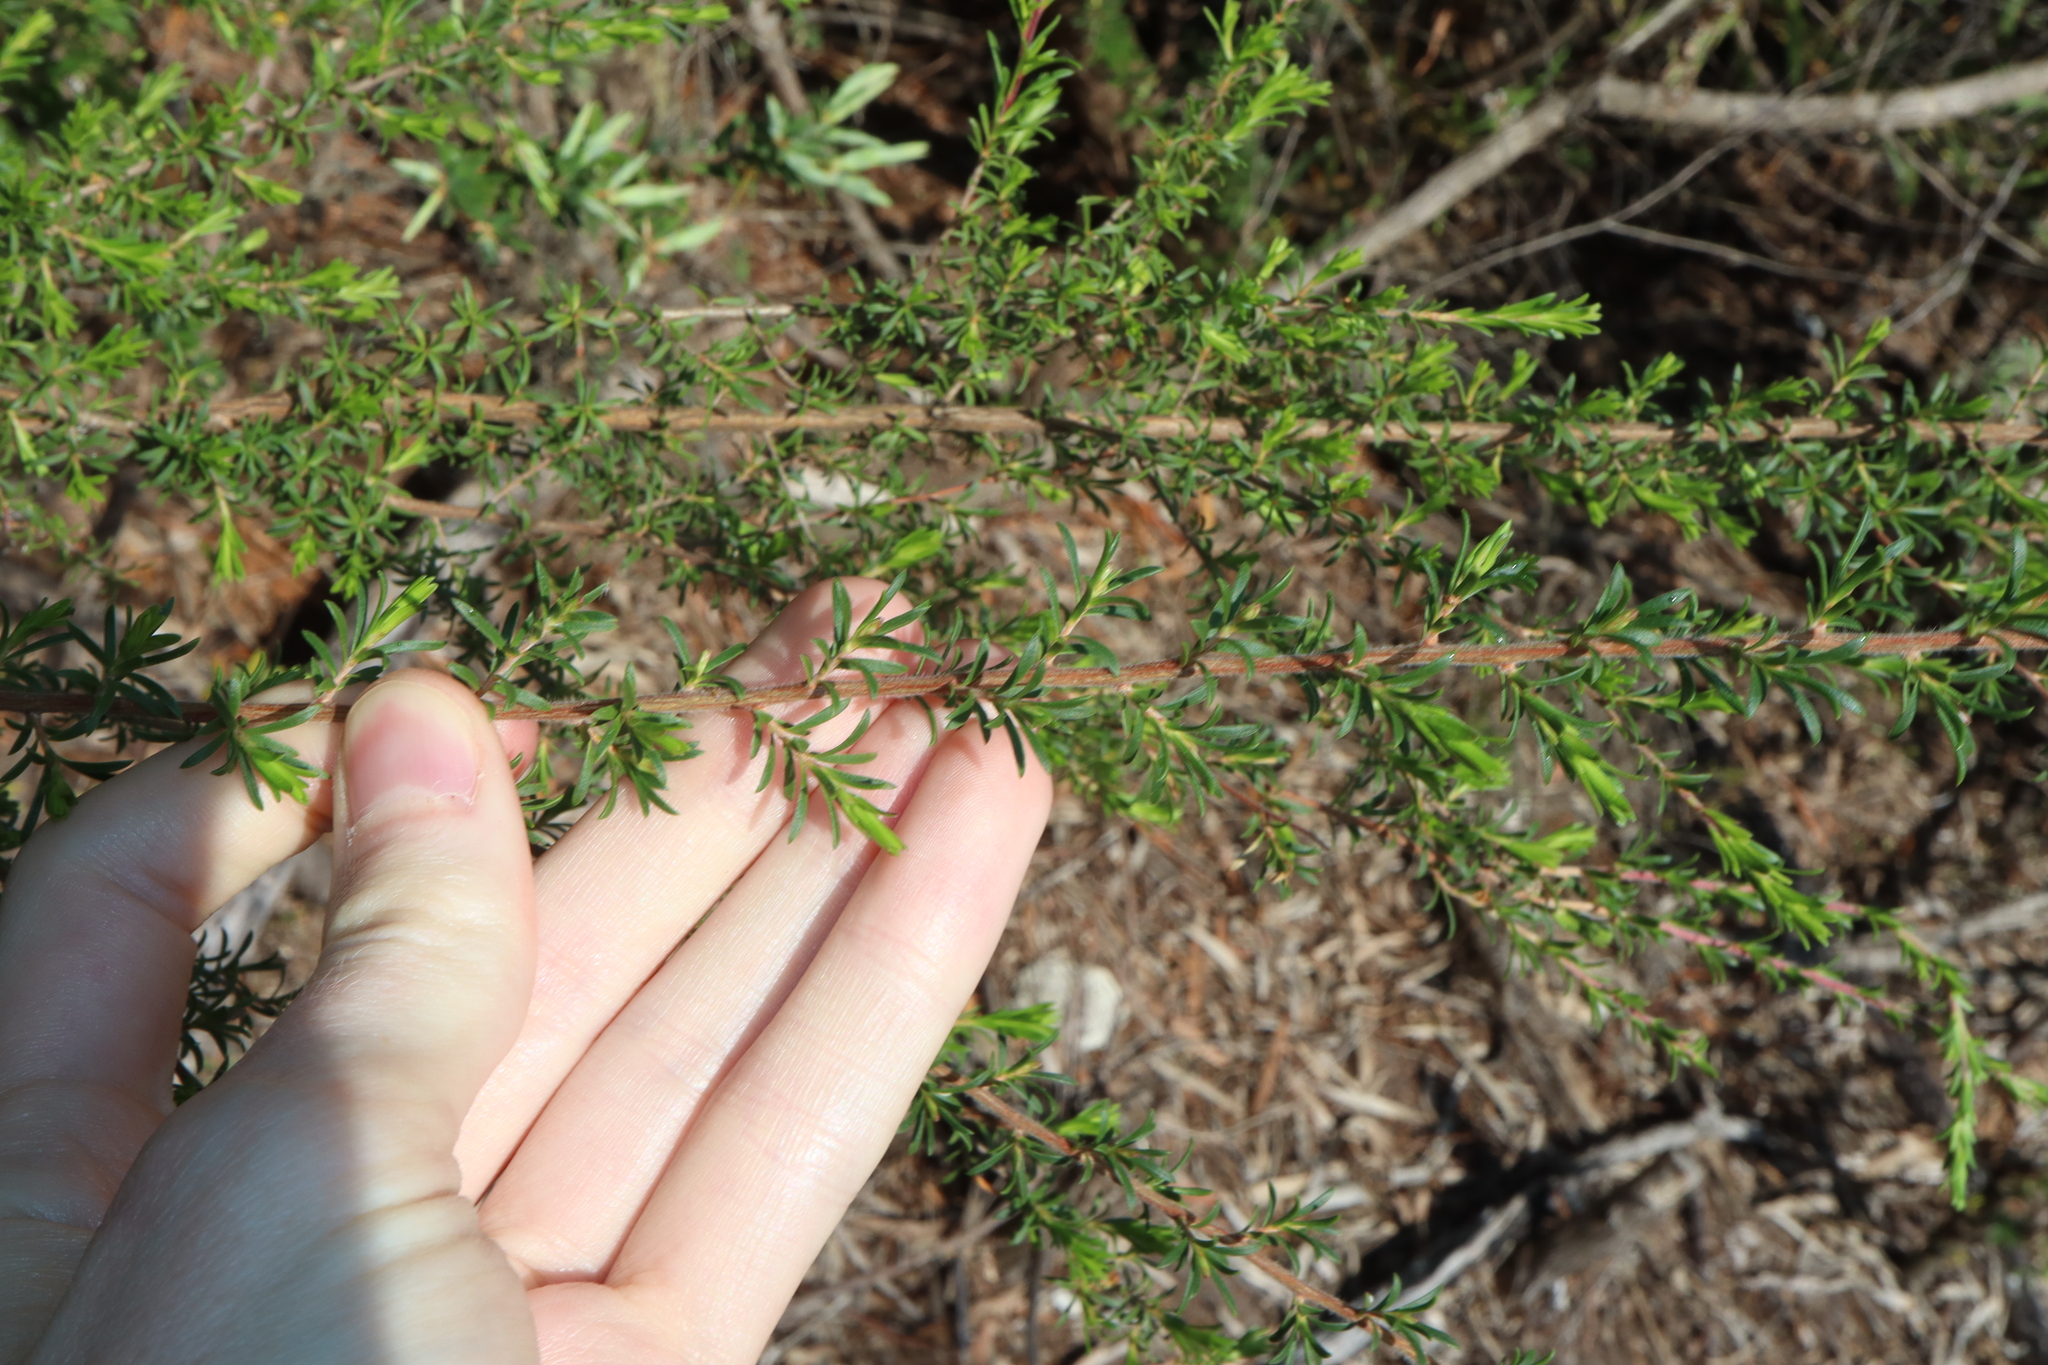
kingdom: Plantae
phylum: Tracheophyta
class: Magnoliopsida
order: Myrtales
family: Myrtaceae
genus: Kunzea
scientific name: Kunzea ambigua
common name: Tickbush
